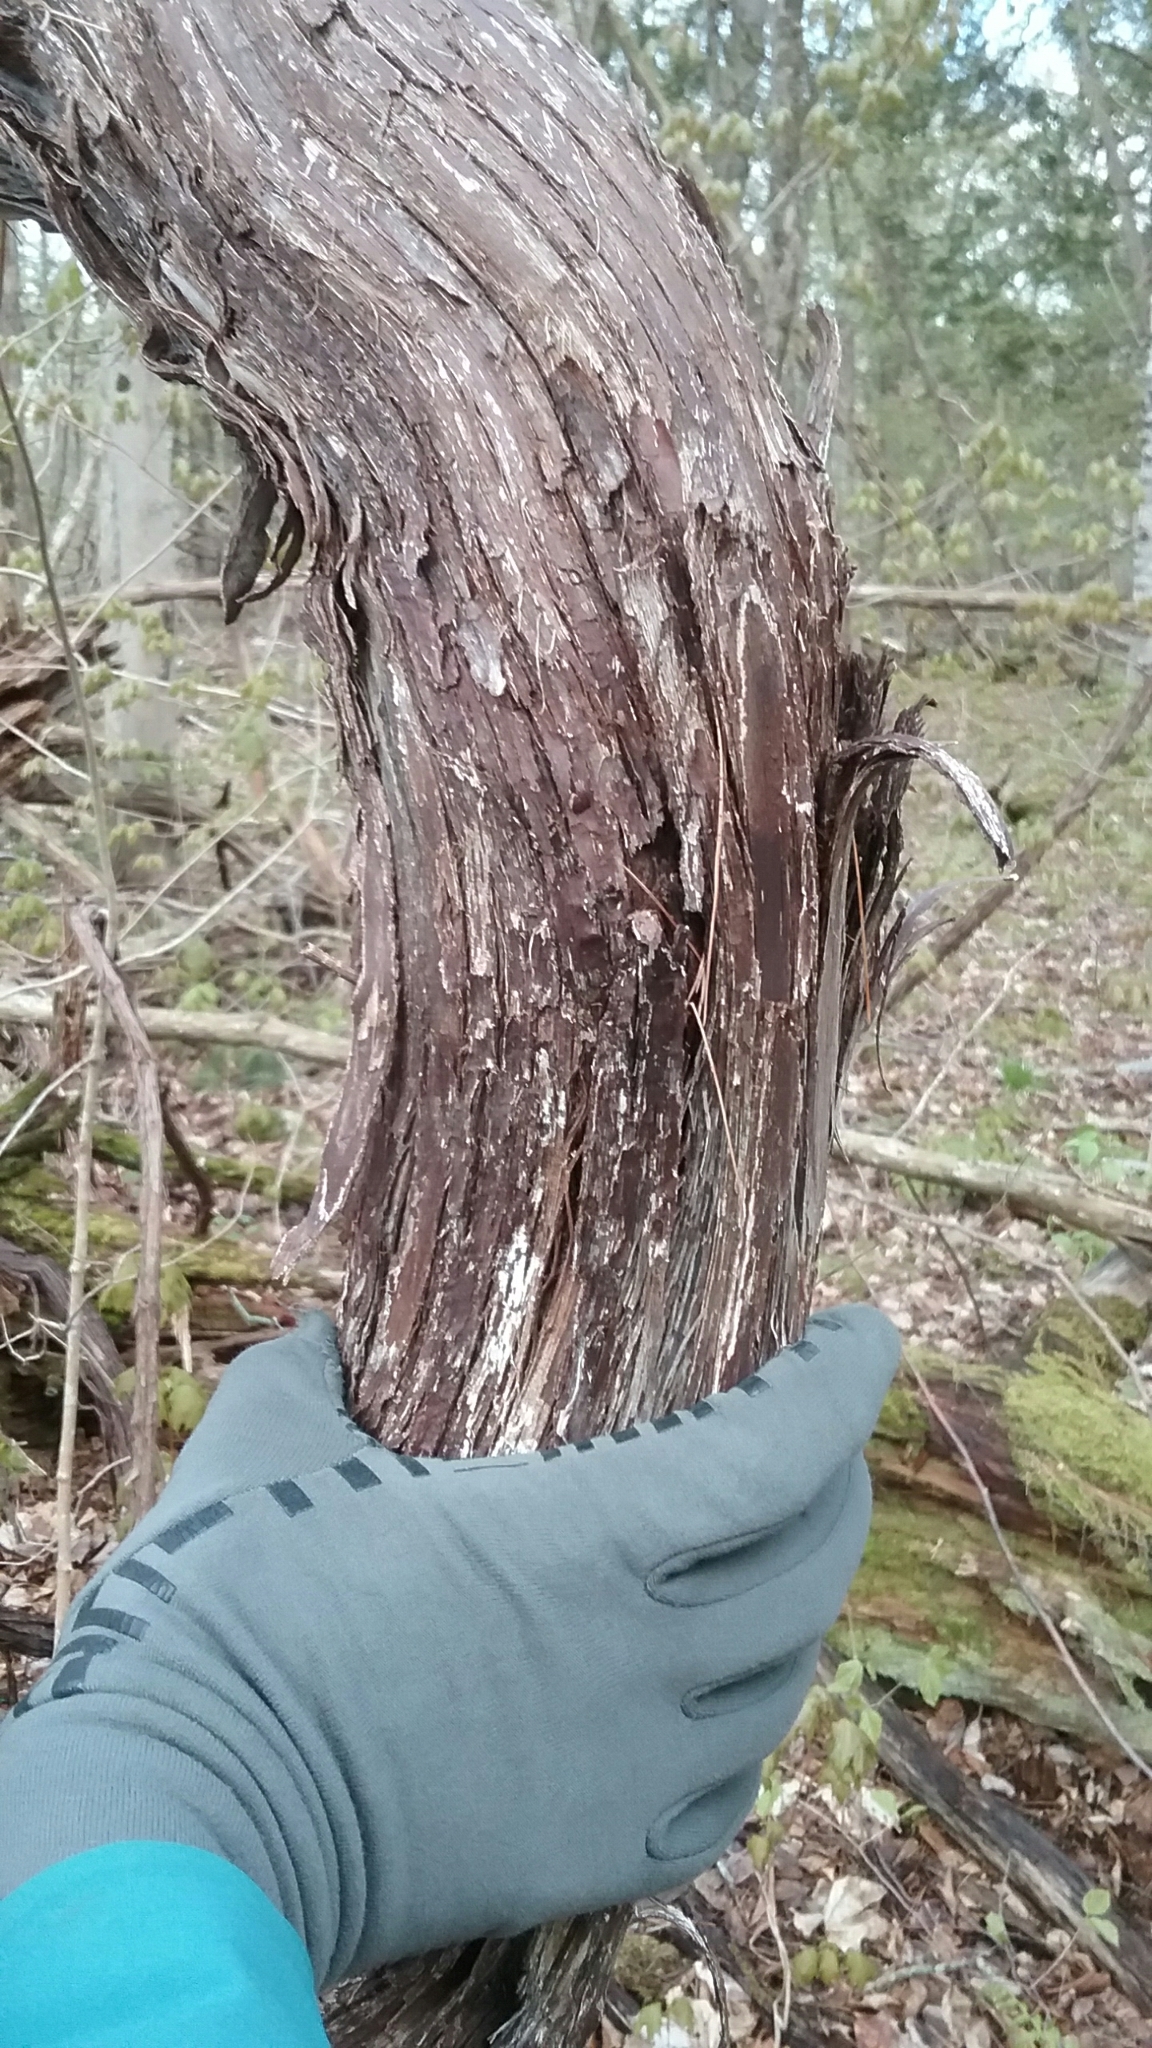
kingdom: Plantae
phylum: Tracheophyta
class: Magnoliopsida
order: Vitales
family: Vitaceae
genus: Vitis
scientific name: Vitis
